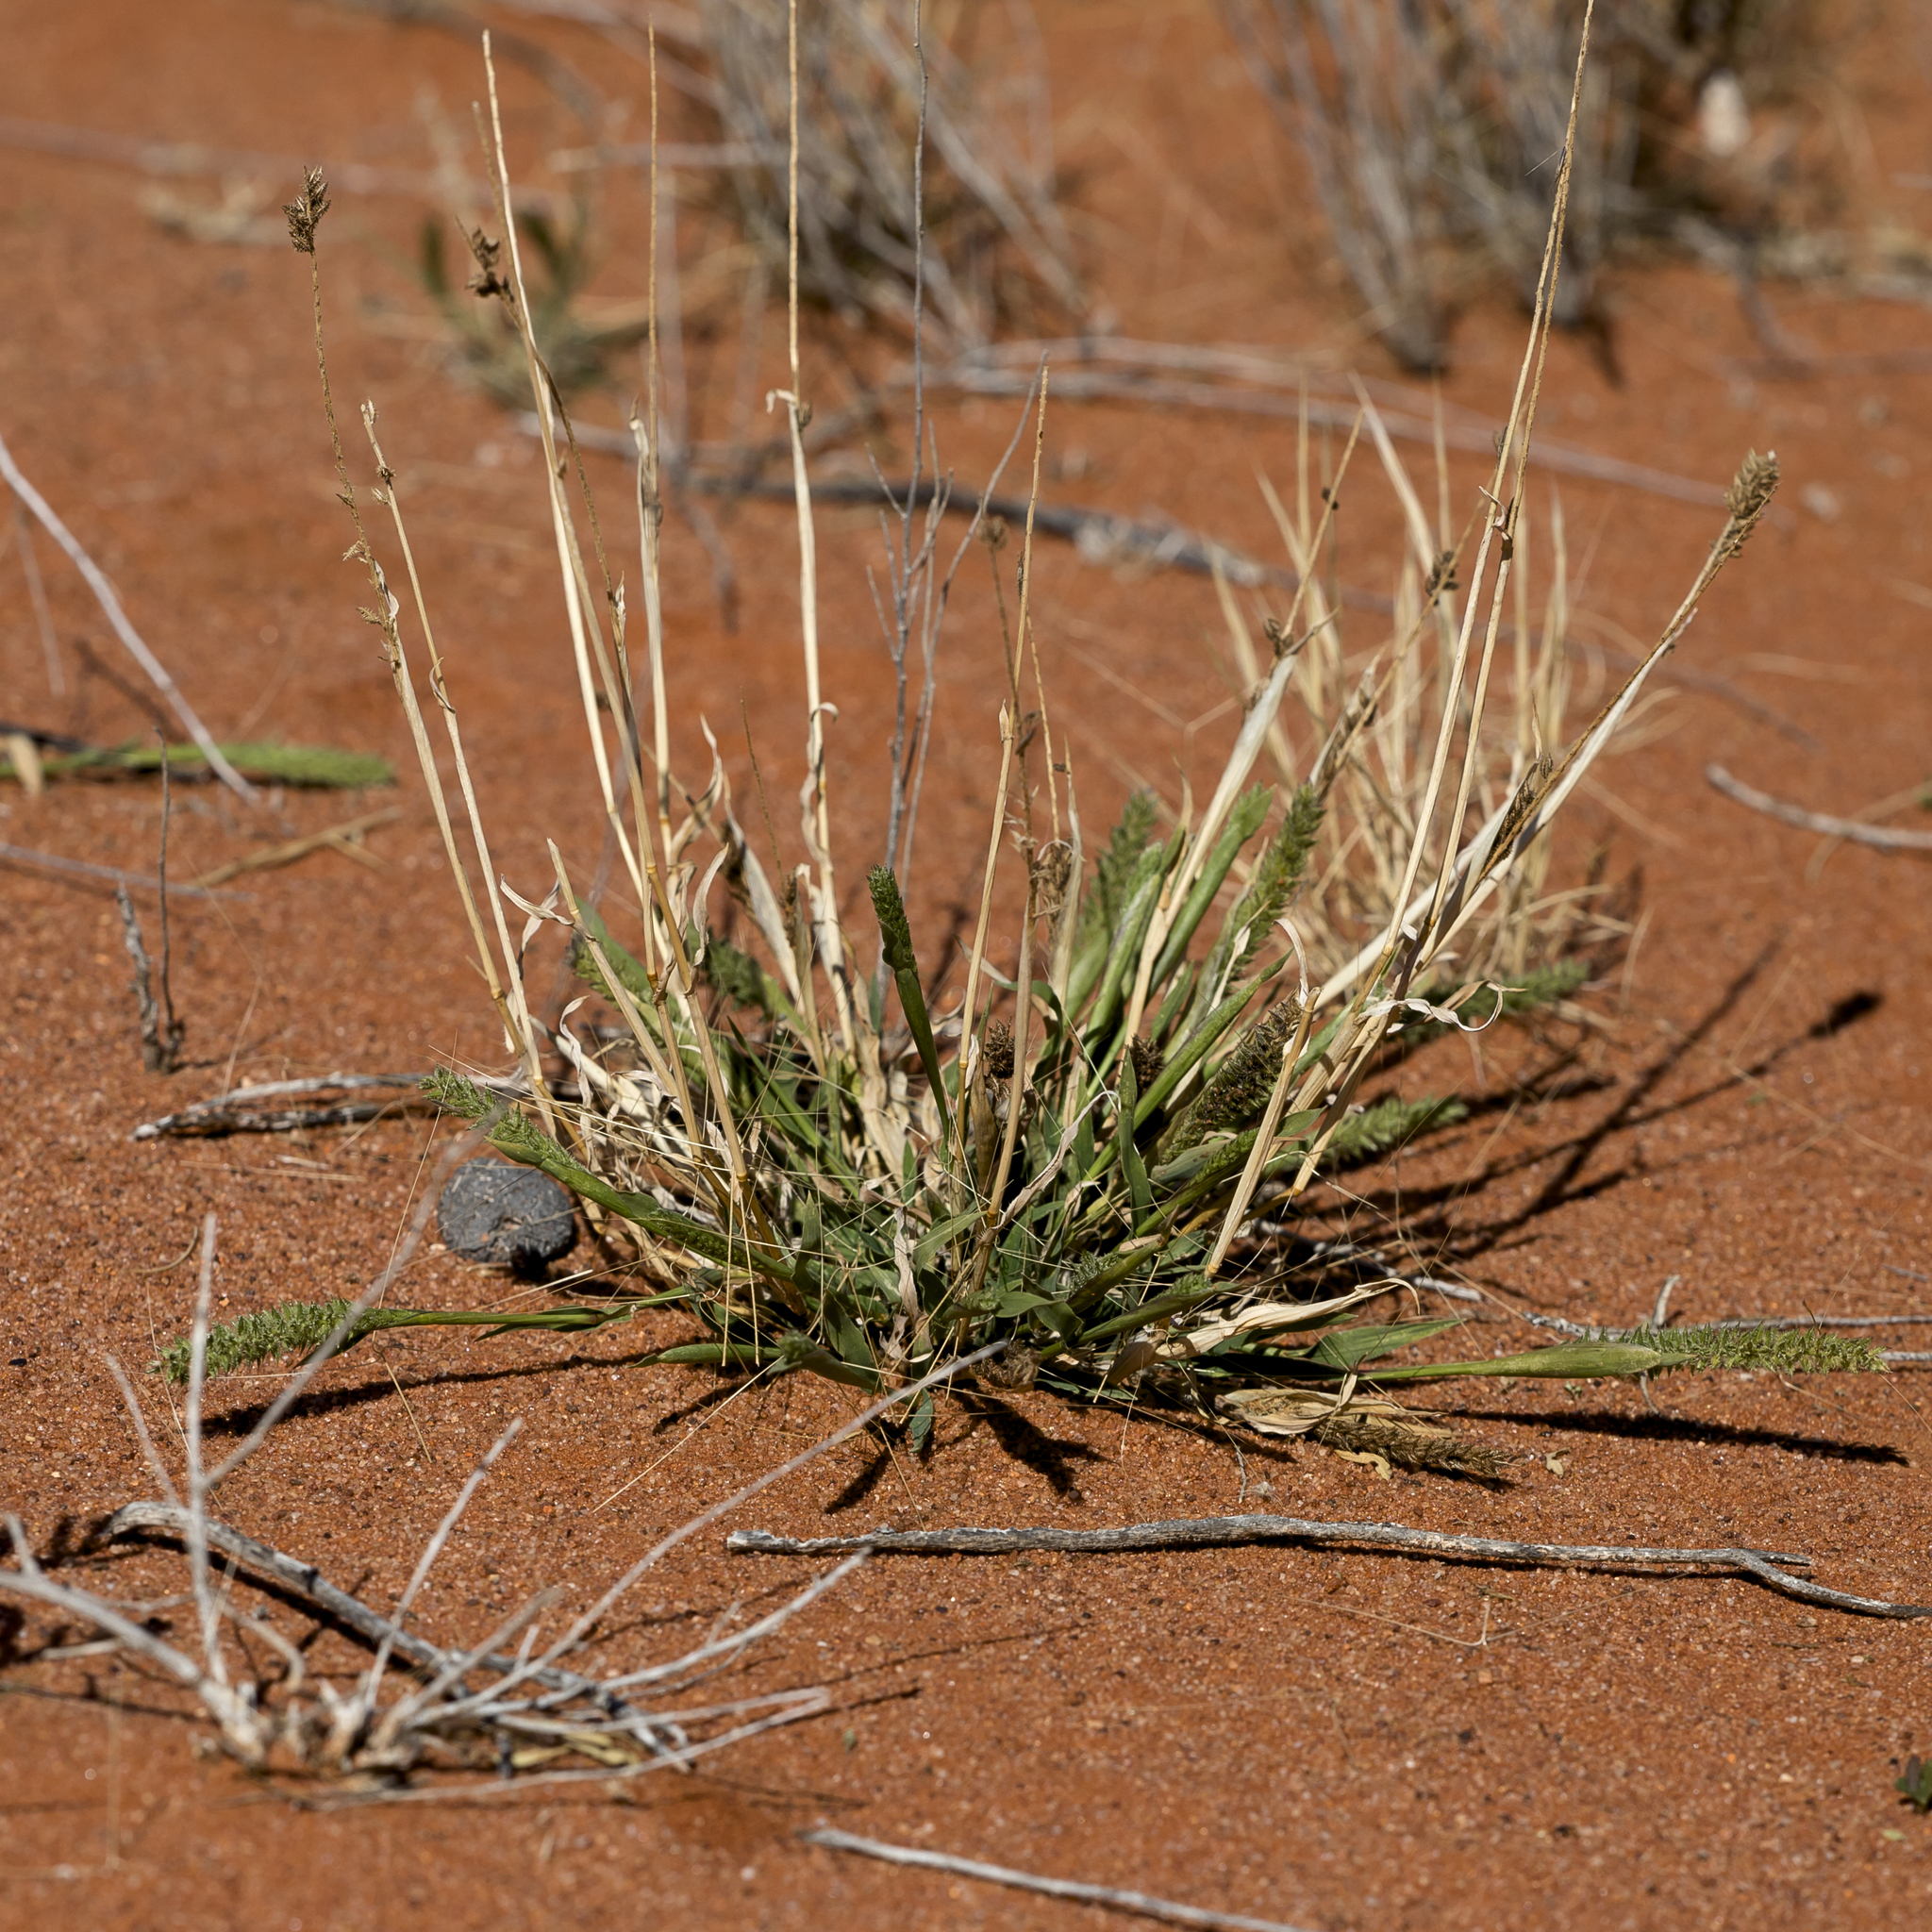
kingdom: Plantae
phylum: Tracheophyta
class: Liliopsida
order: Poales
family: Poaceae
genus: Tragus
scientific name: Tragus australianus
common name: Australian bur-grass
